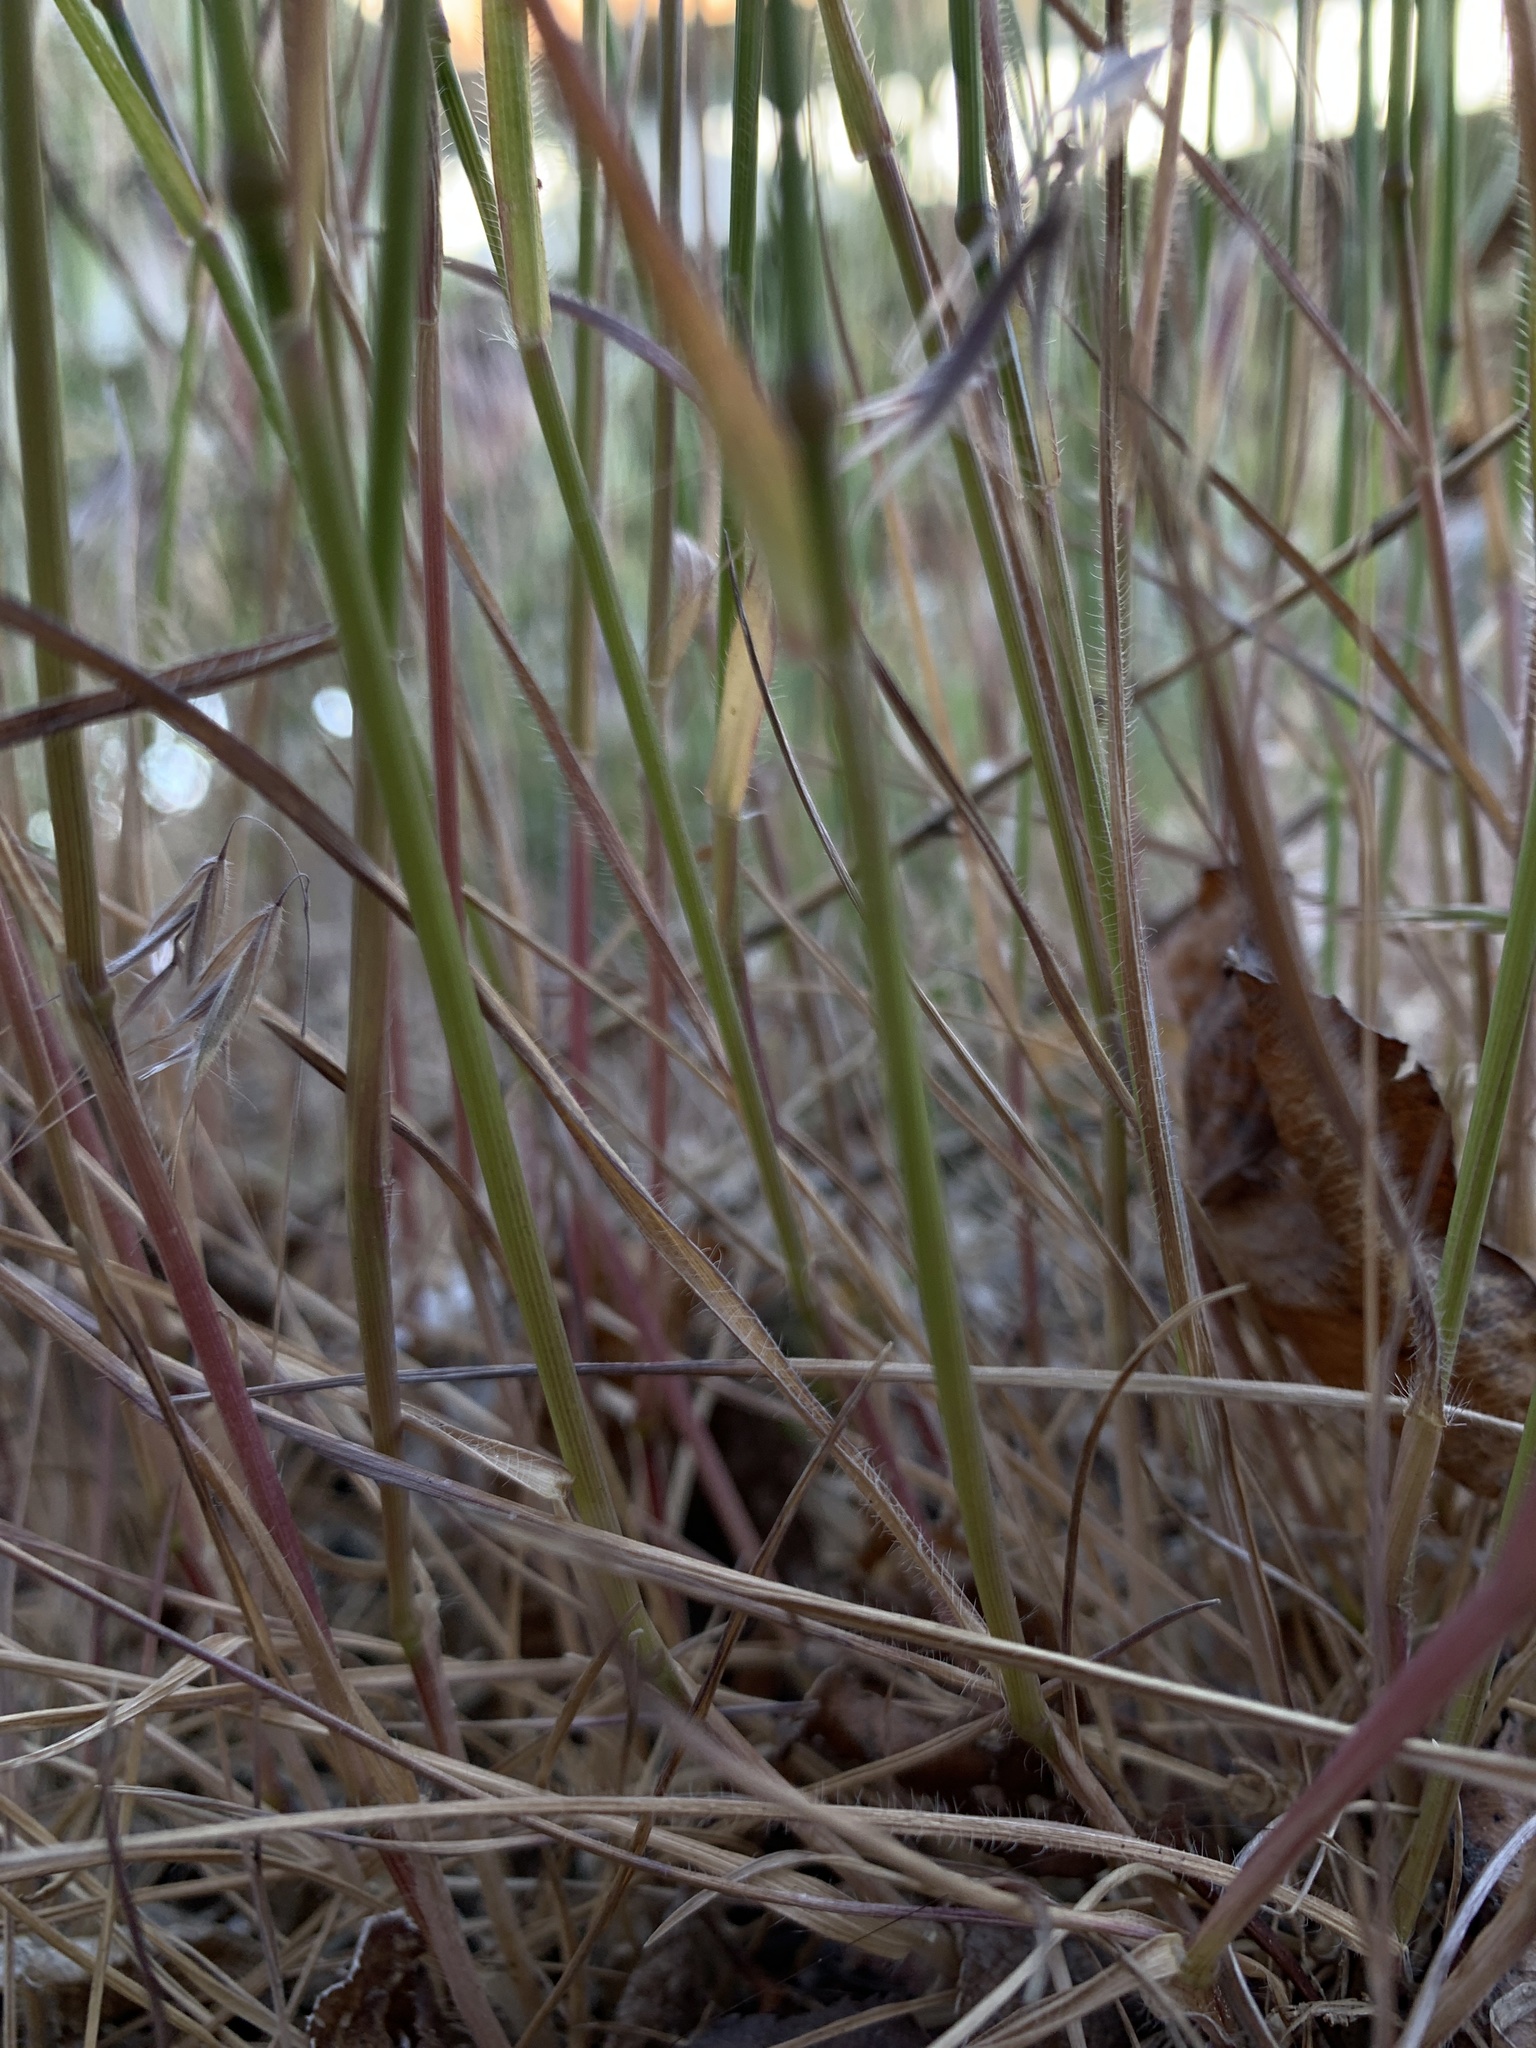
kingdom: Plantae
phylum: Tracheophyta
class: Liliopsida
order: Poales
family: Poaceae
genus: Aegilops
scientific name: Aegilops cylindrica
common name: Jointed goatgrass
